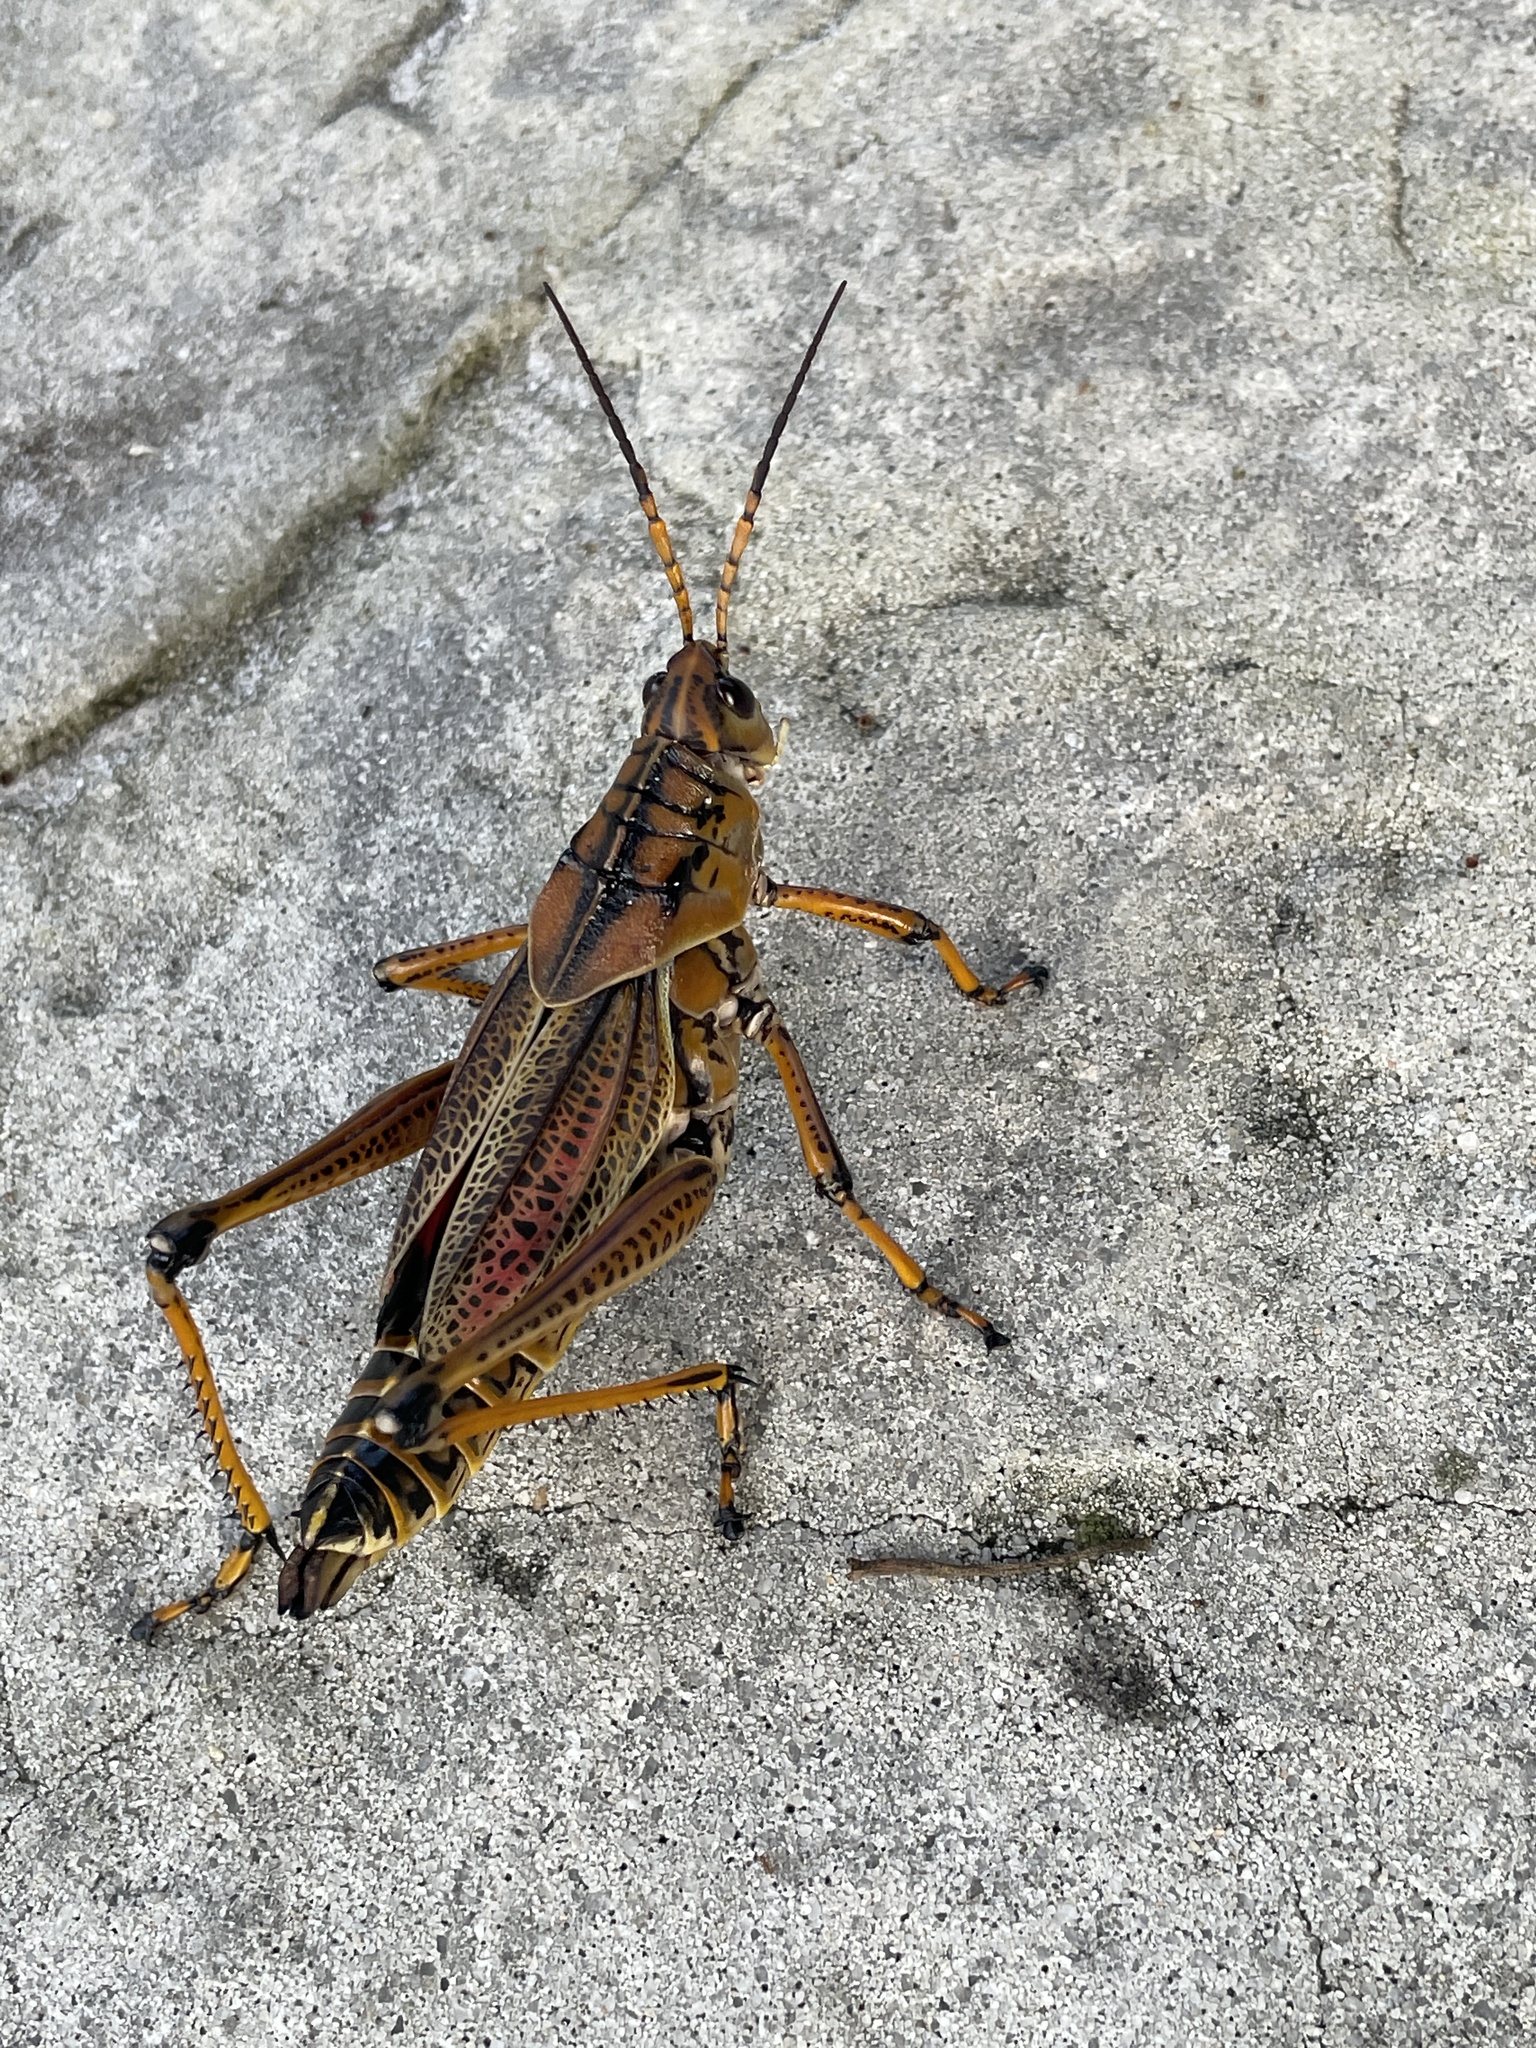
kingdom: Animalia
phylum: Arthropoda
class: Insecta
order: Orthoptera
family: Romaleidae
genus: Romalea
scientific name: Romalea microptera
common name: Eastern lubber grasshopper
